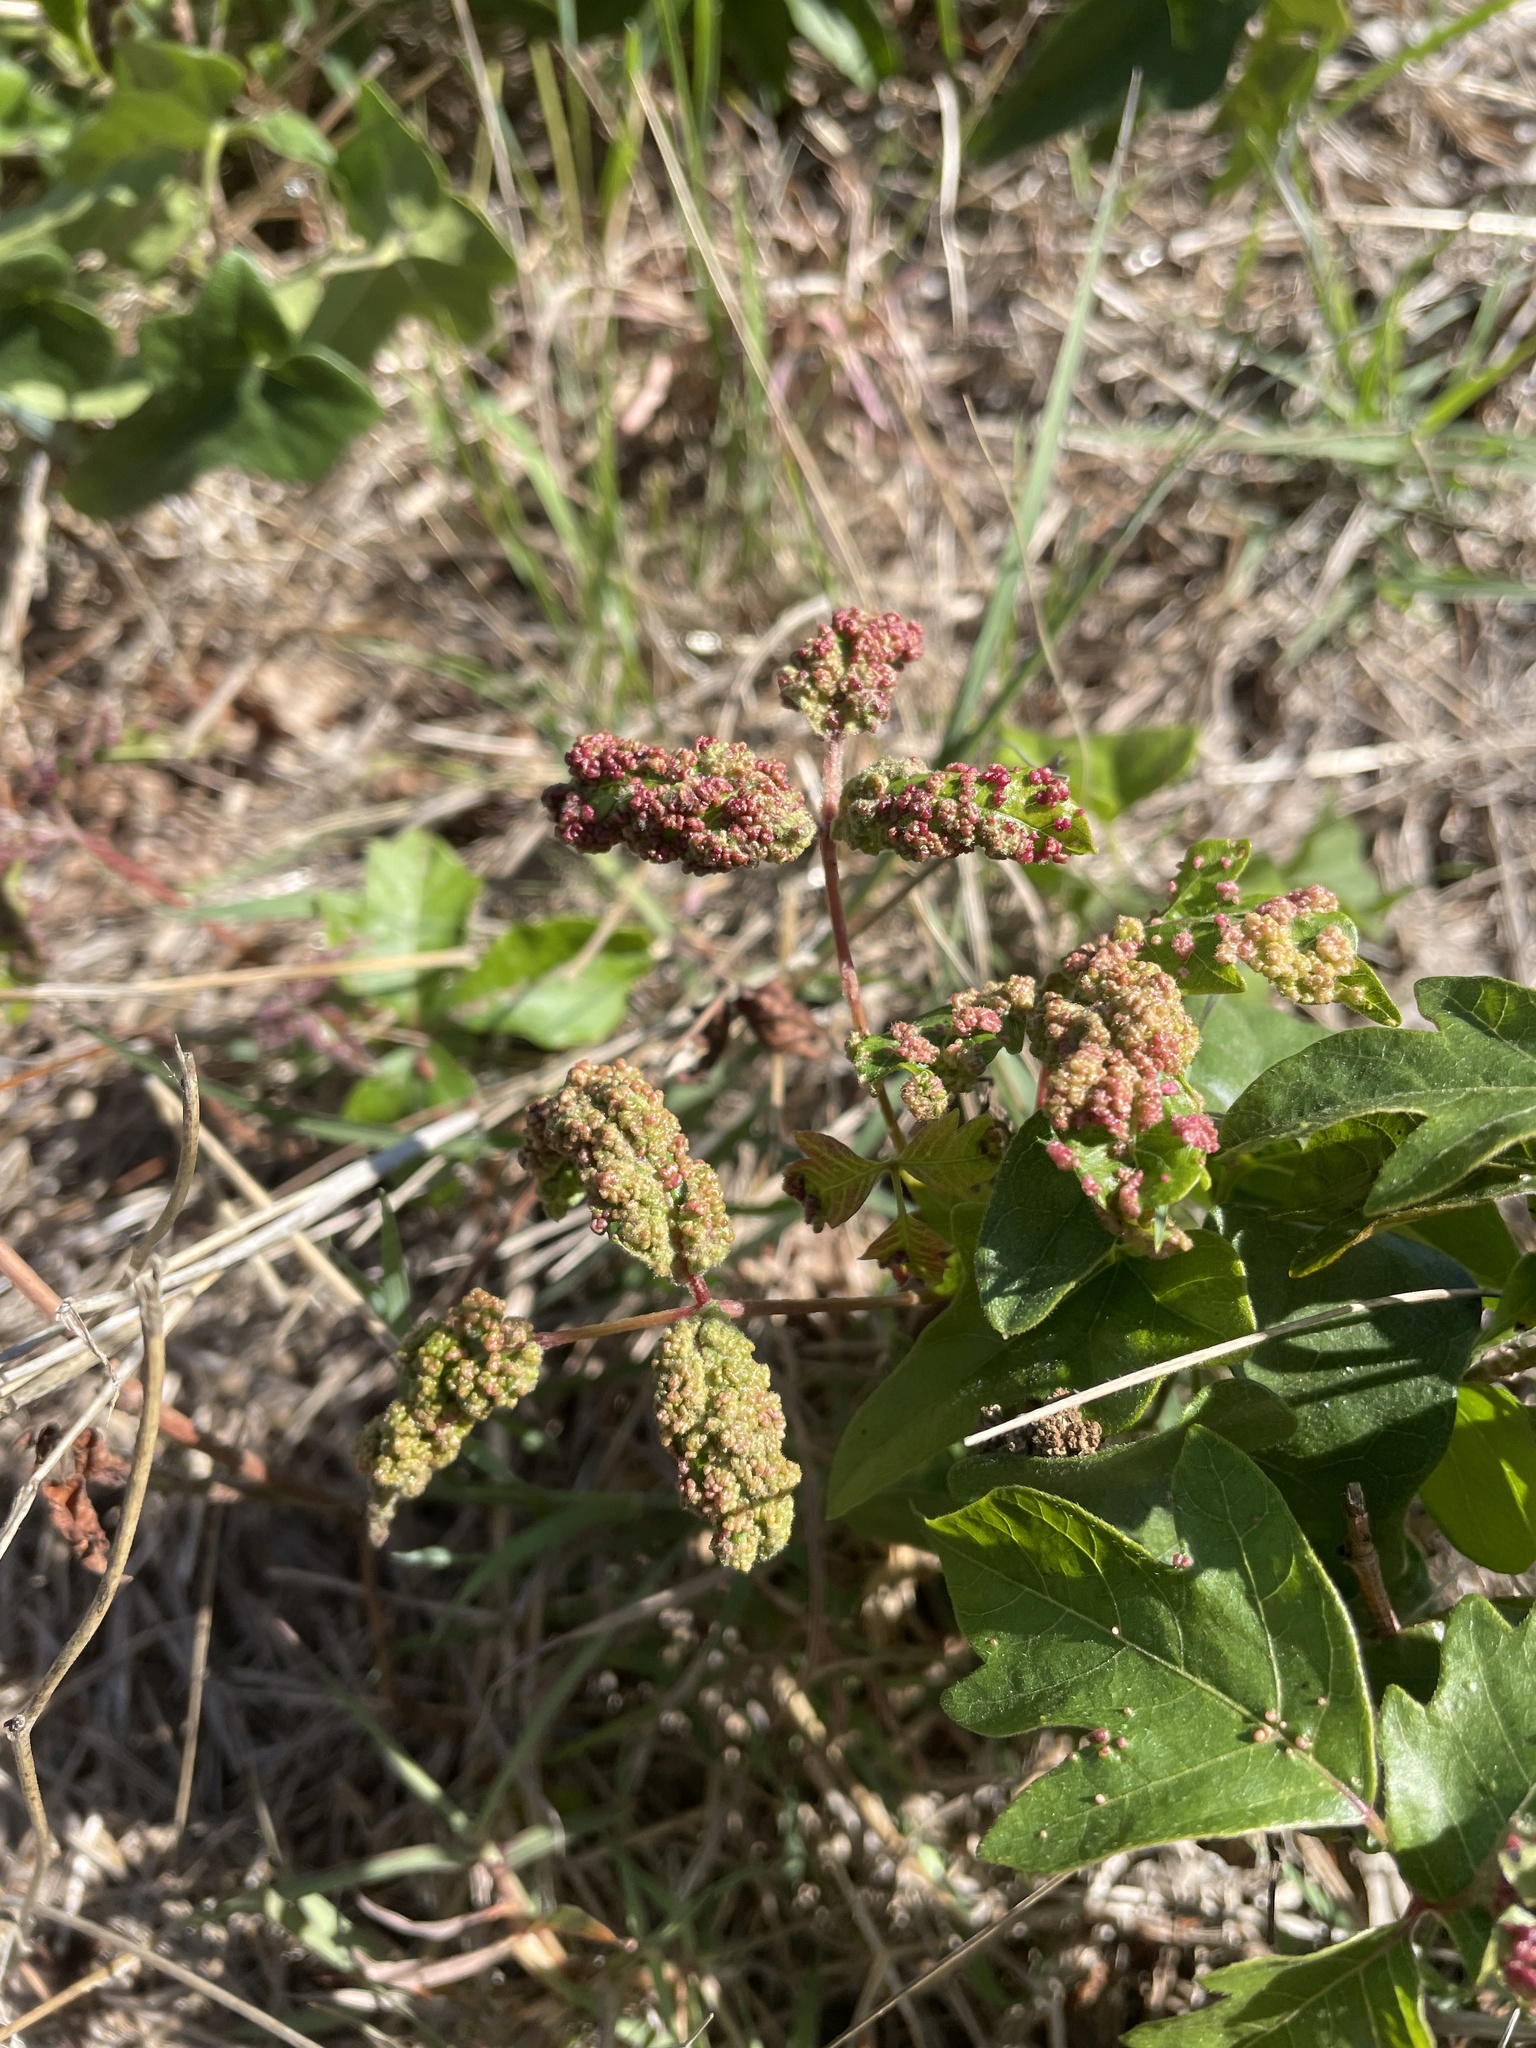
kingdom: Animalia
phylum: Arthropoda
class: Arachnida
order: Trombidiformes
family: Eriophyidae
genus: Aculops
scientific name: Aculops
